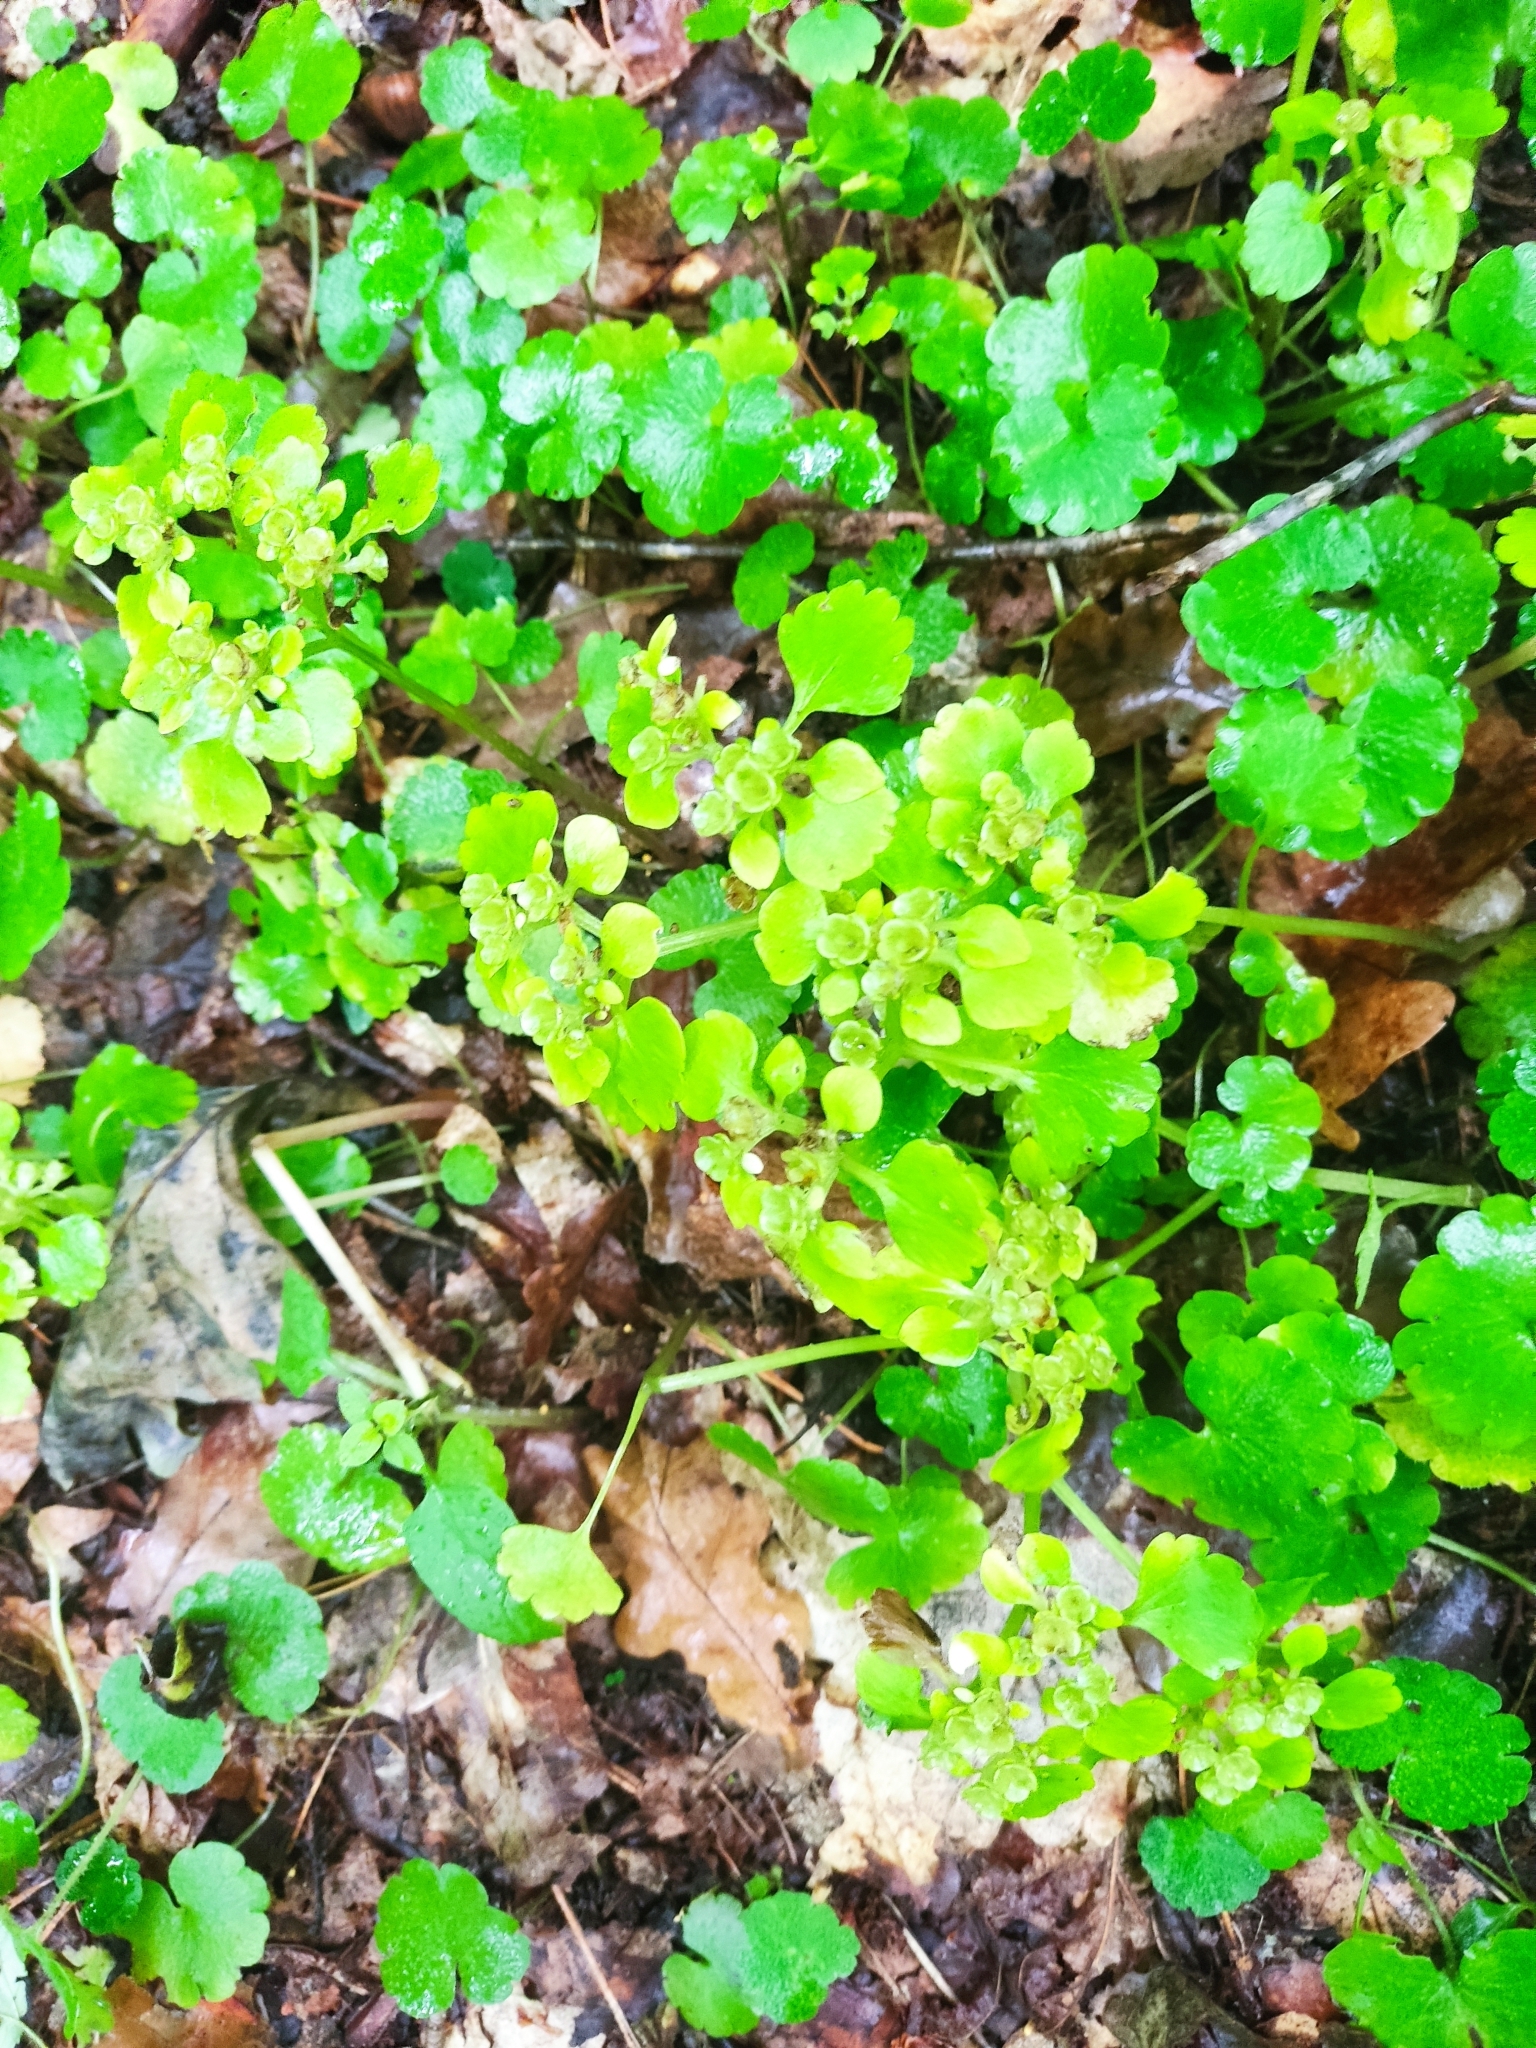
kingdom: Plantae
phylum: Tracheophyta
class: Magnoliopsida
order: Saxifragales
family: Saxifragaceae
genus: Chrysosplenium
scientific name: Chrysosplenium alternifolium
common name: Alternate-leaved golden-saxifrage
